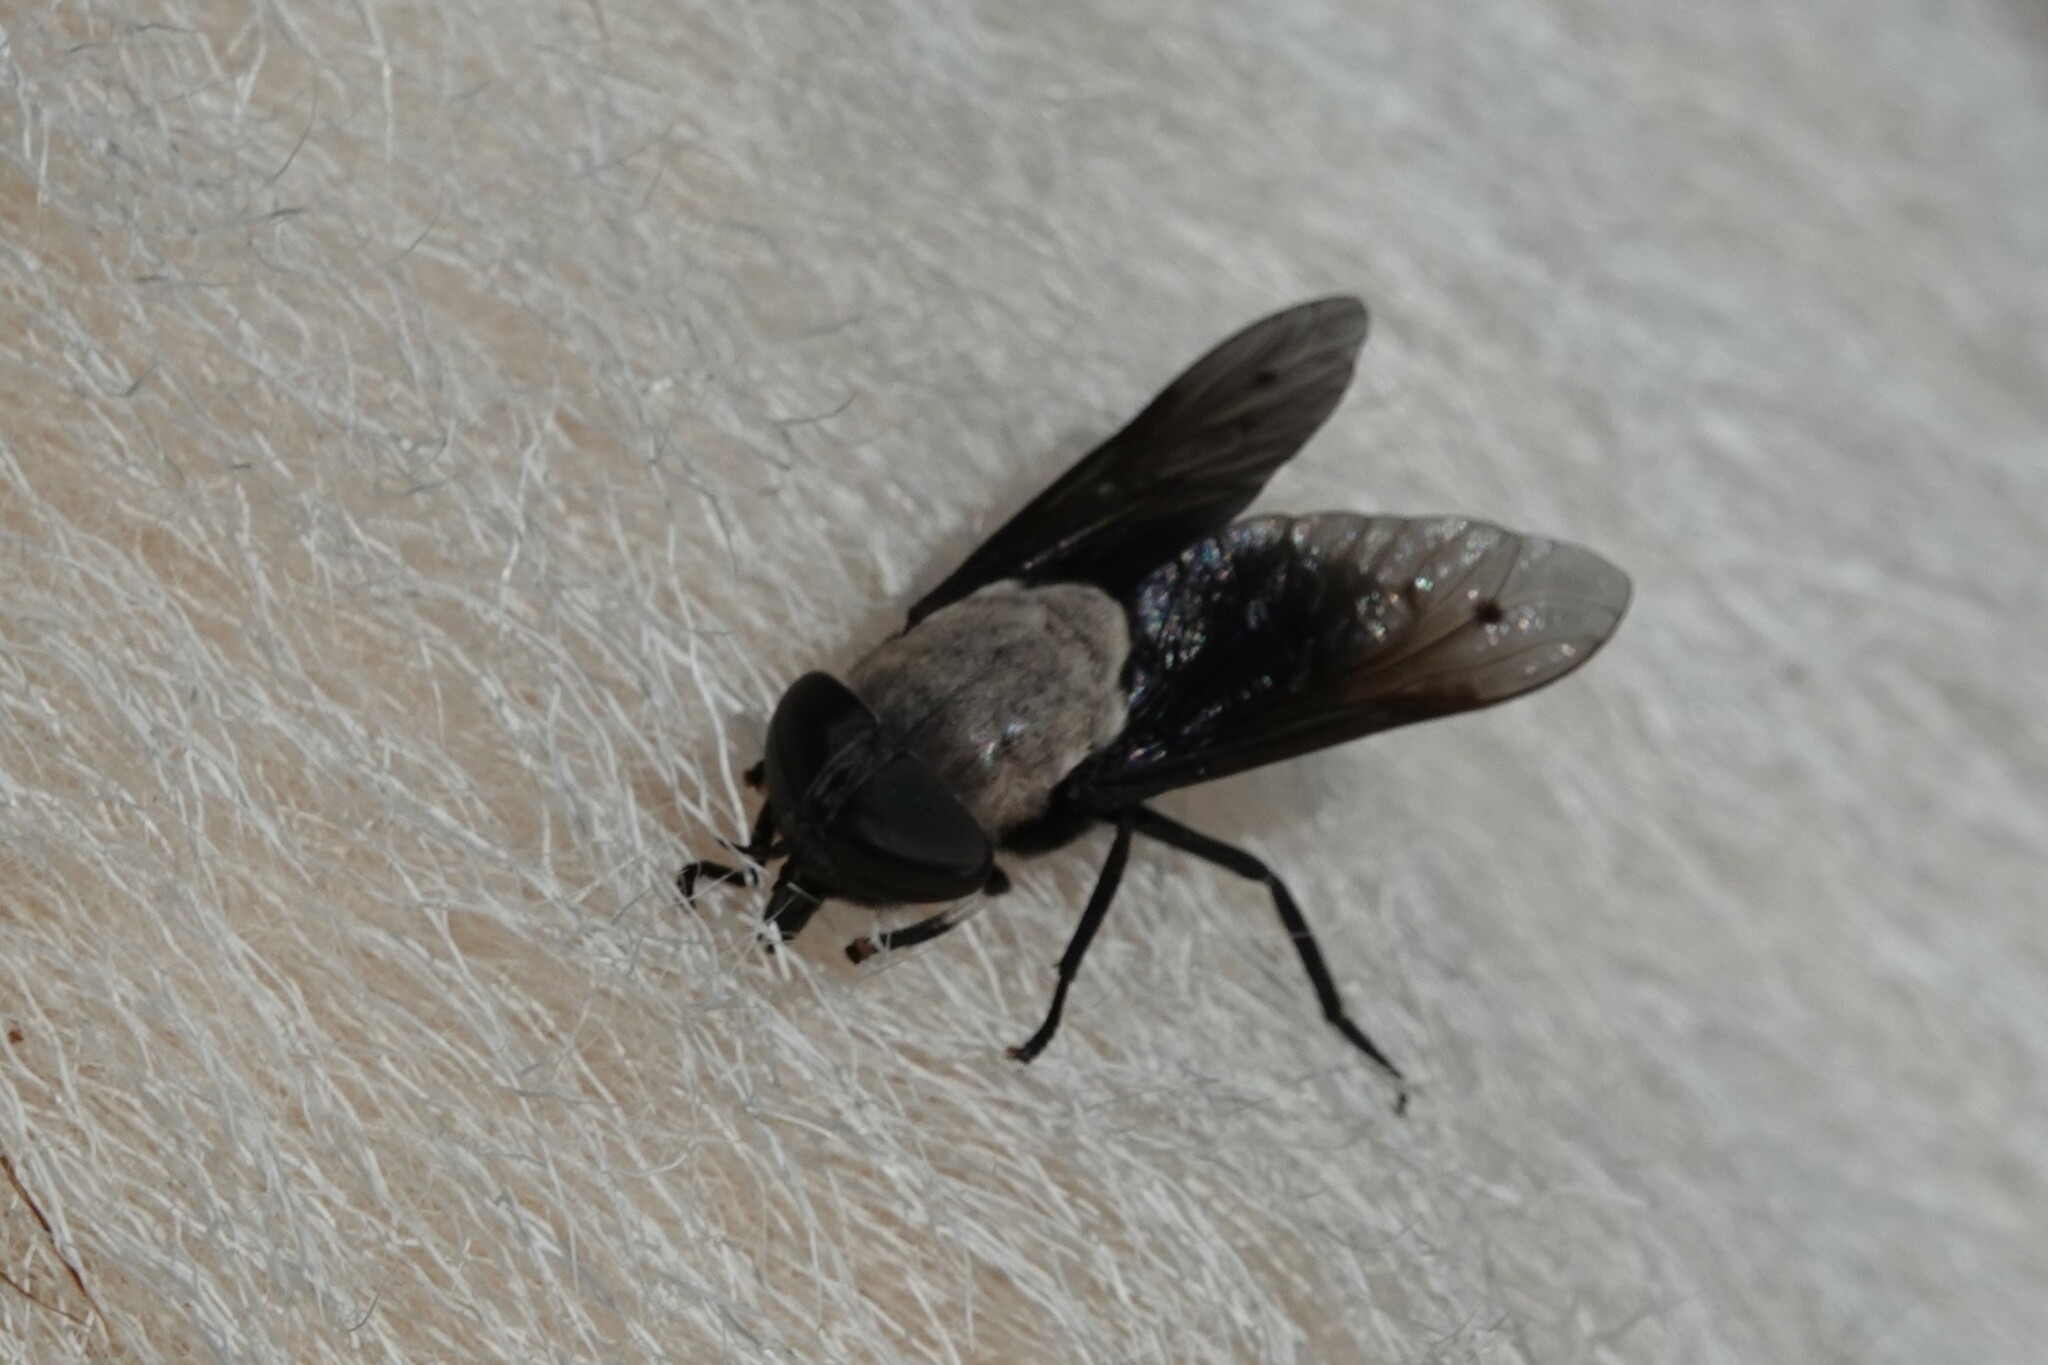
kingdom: Animalia
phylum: Arthropoda
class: Insecta
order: Diptera
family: Tabanidae
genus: Tabanus
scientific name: Tabanus punctifer
